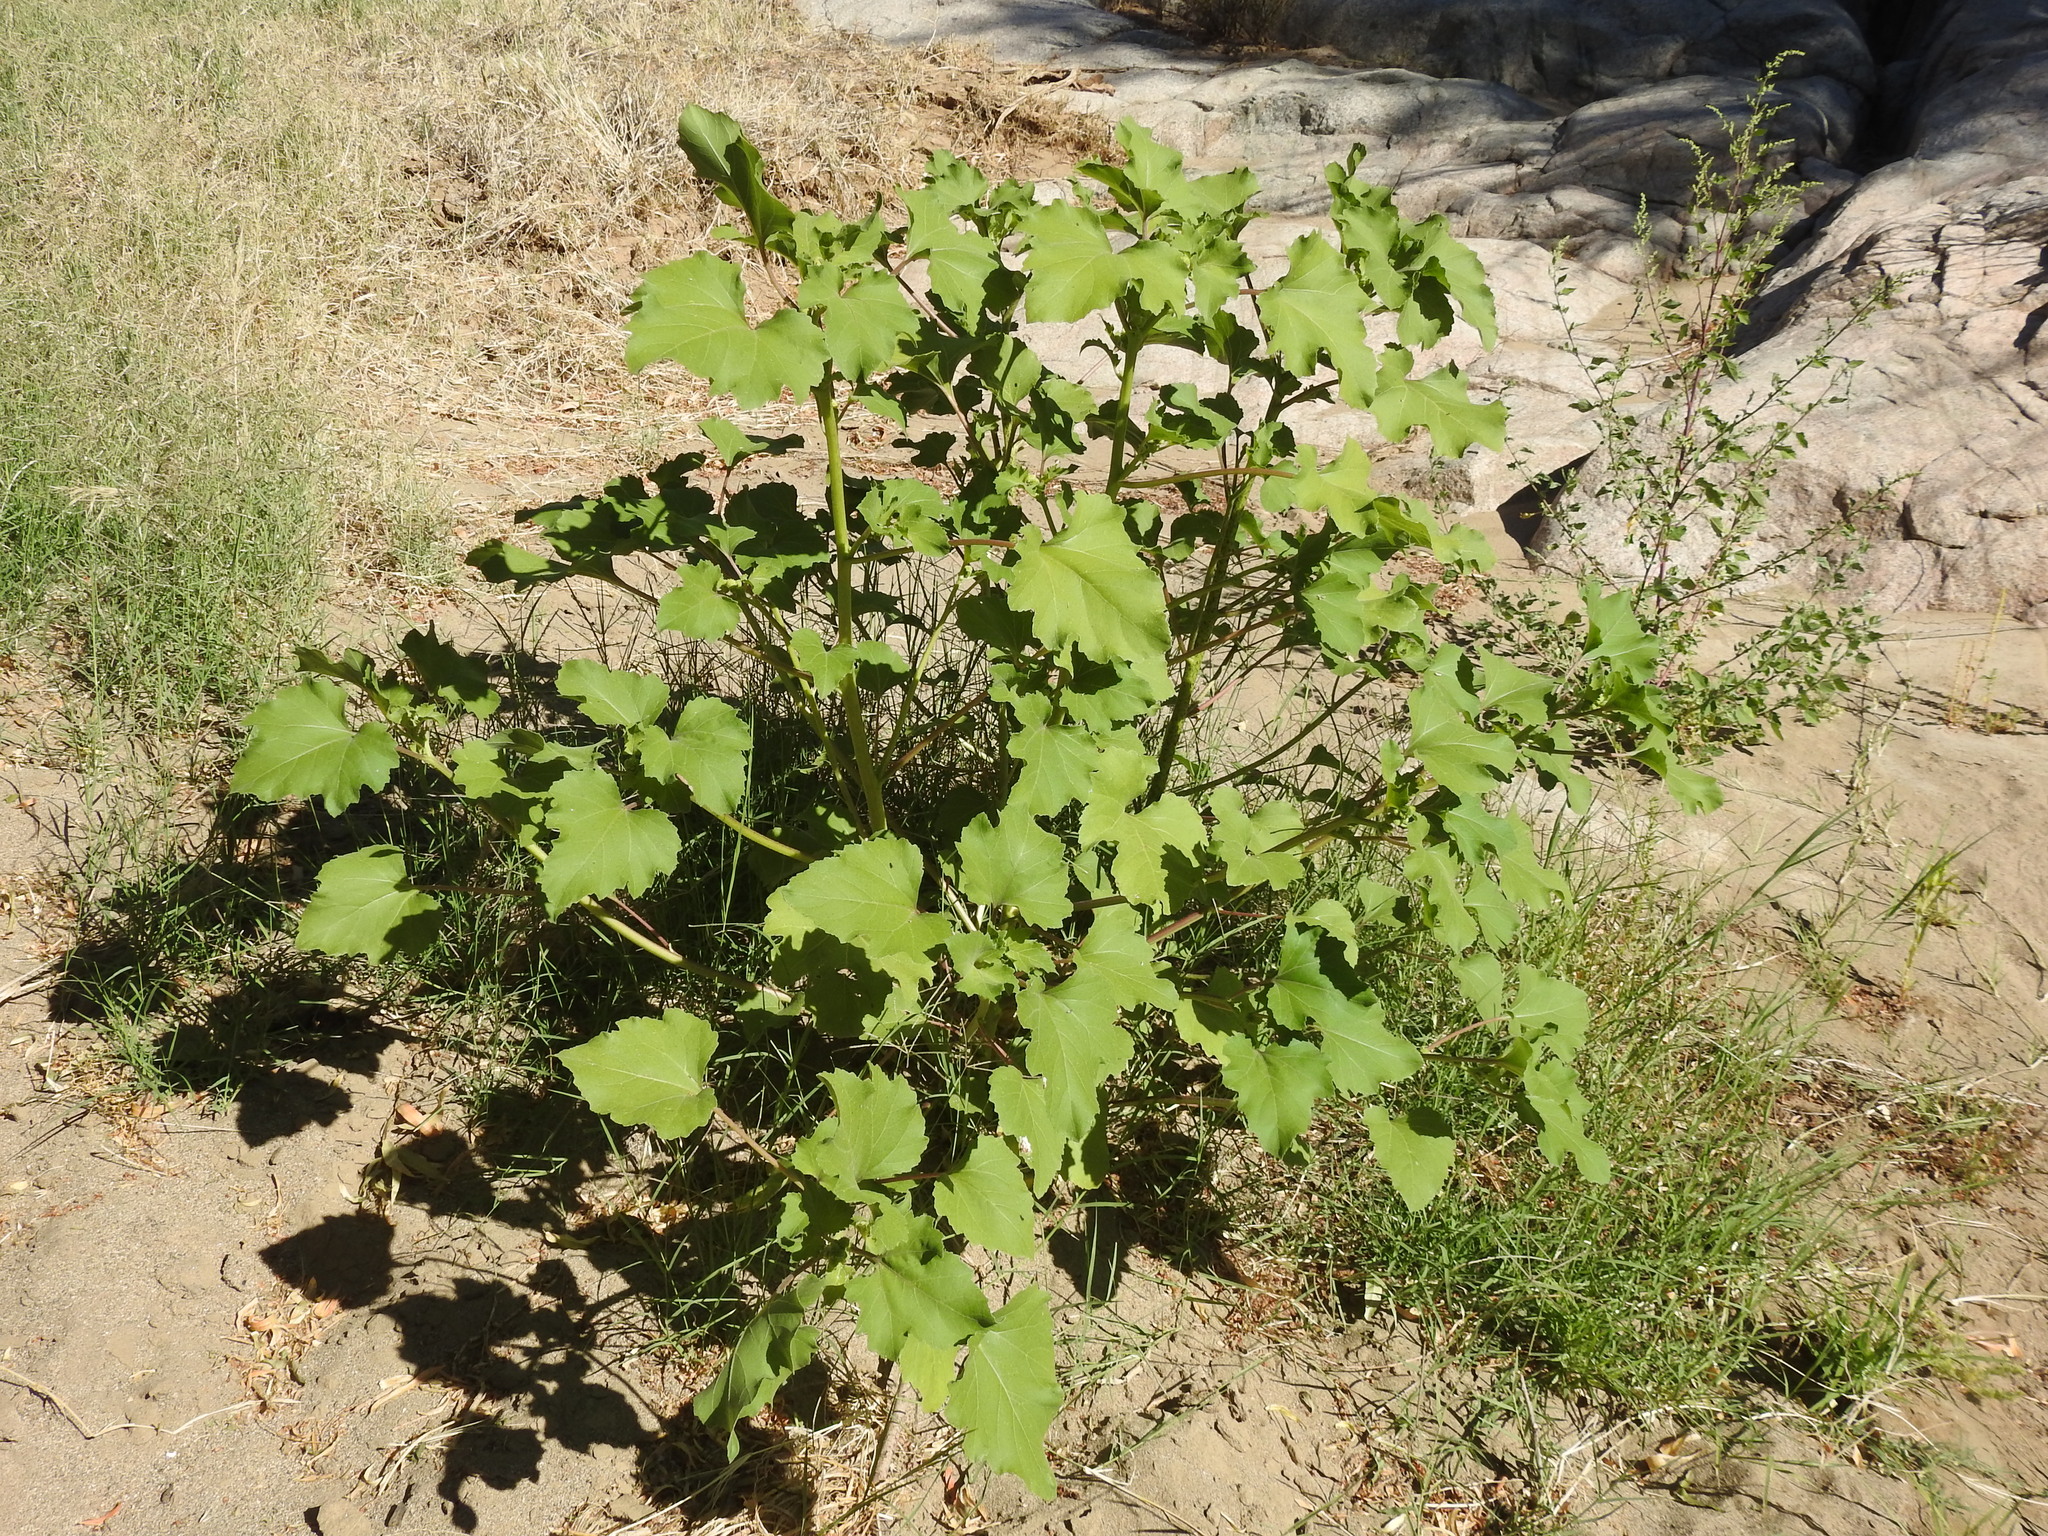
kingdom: Plantae
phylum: Tracheophyta
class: Magnoliopsida
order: Asterales
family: Asteraceae
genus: Xanthium
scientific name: Xanthium strumarium
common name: Rough cocklebur
